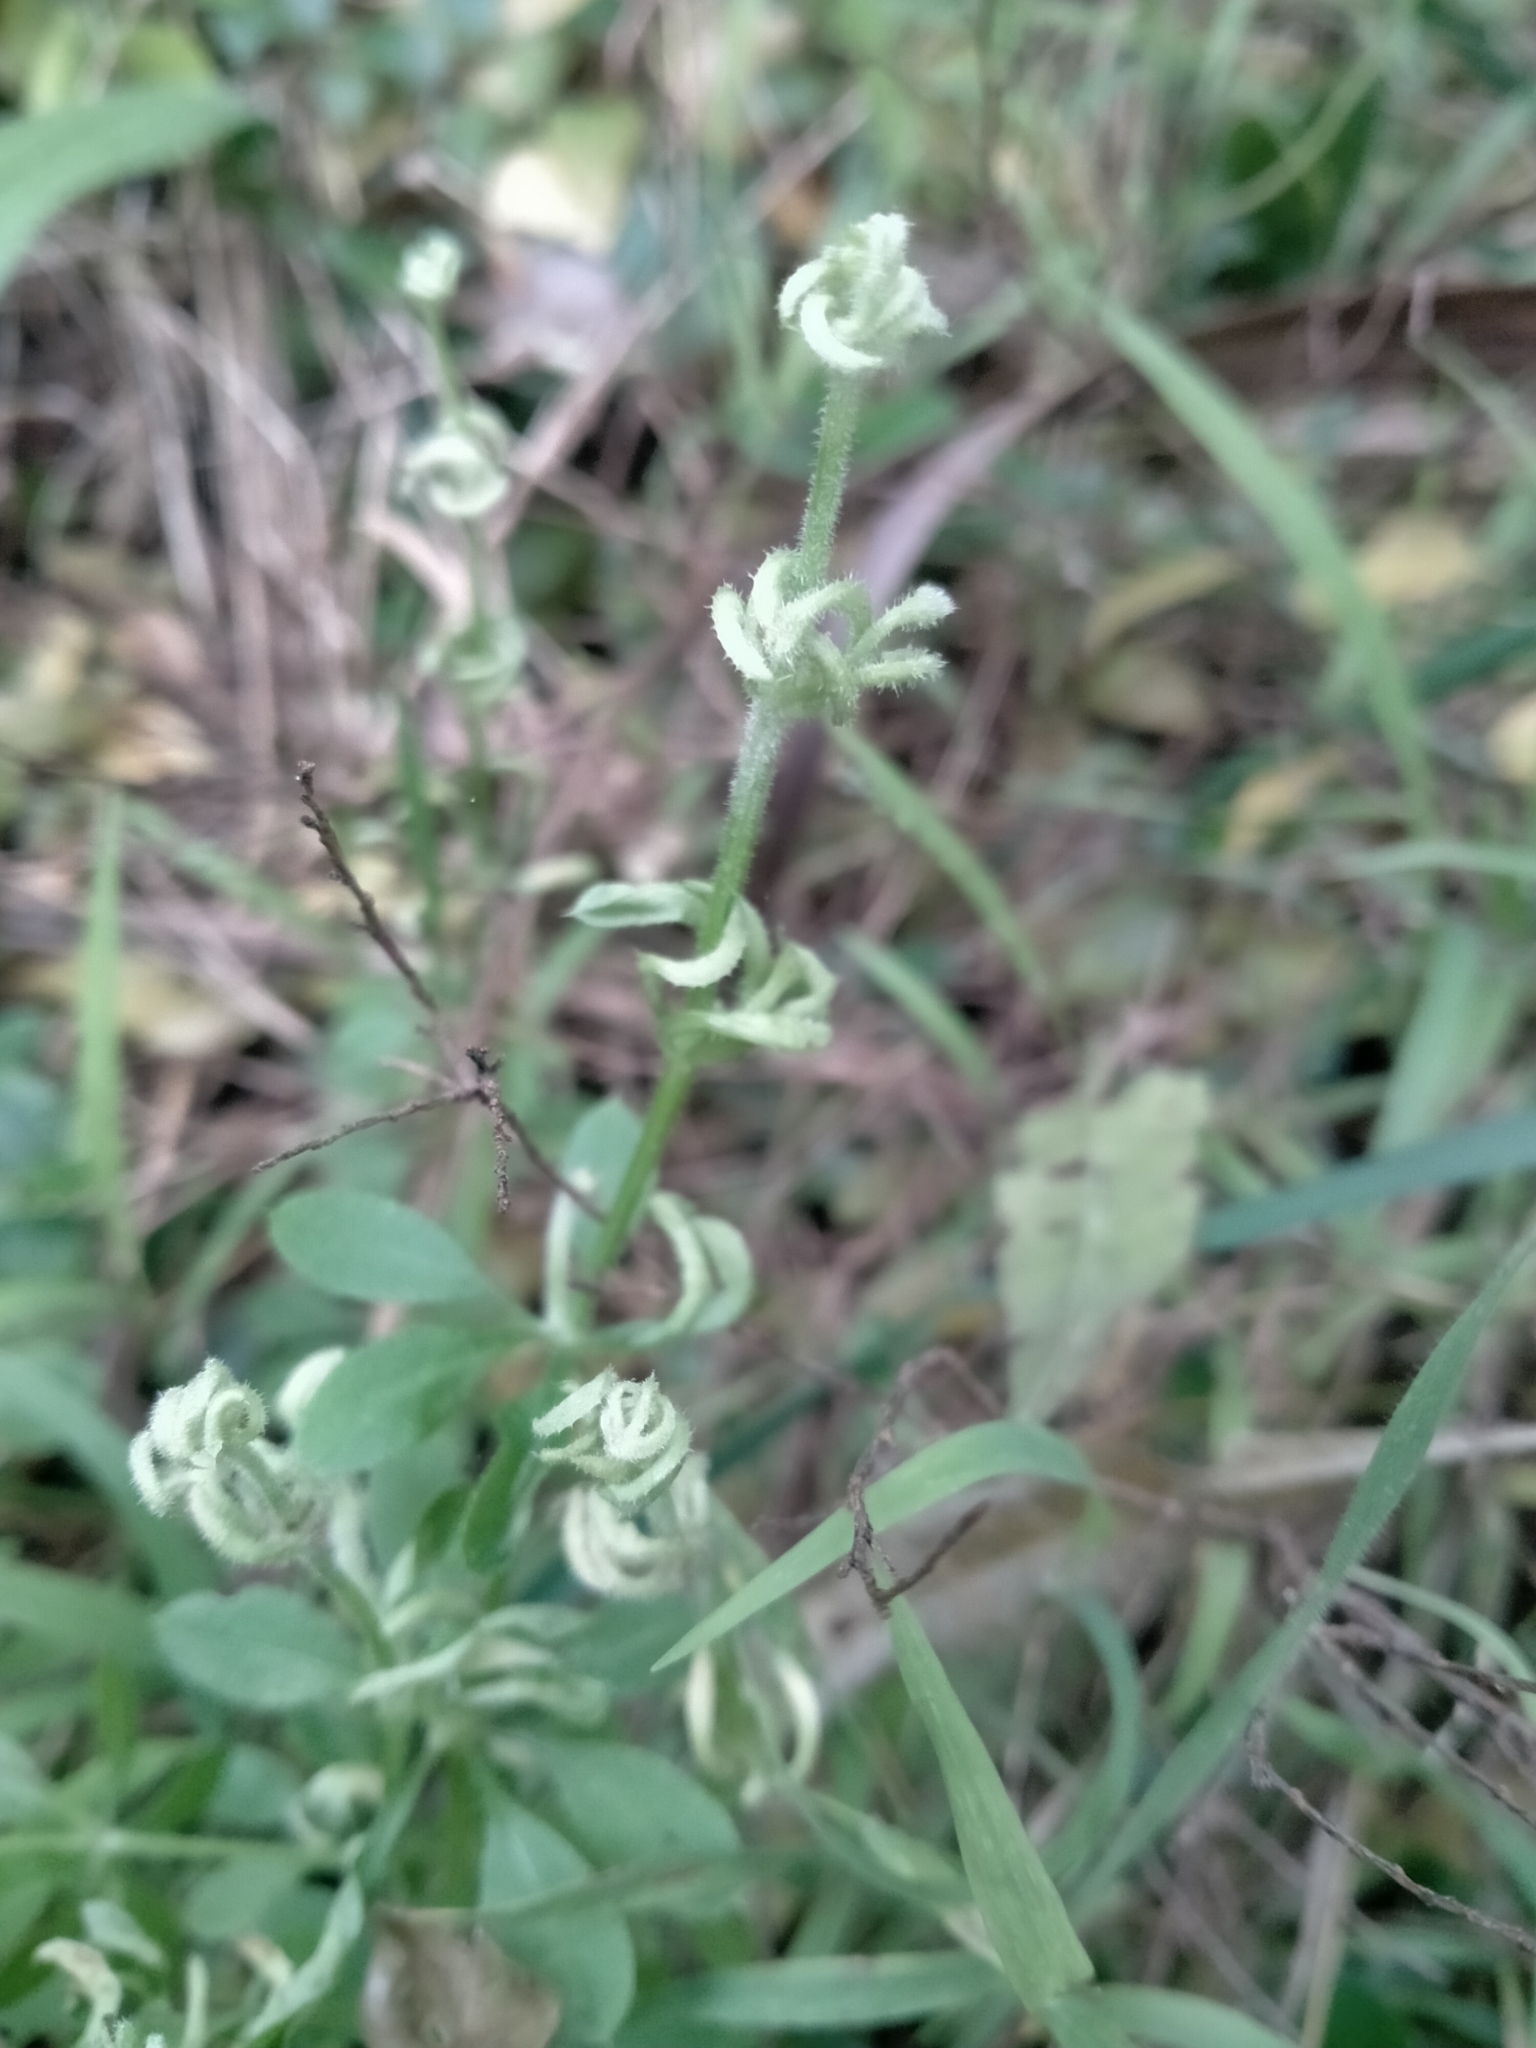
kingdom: Animalia
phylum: Arthropoda
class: Arachnida
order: Trombidiformes
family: Eriophyidae
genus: Cecidophyes
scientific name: Cecidophyes rouhollahi
